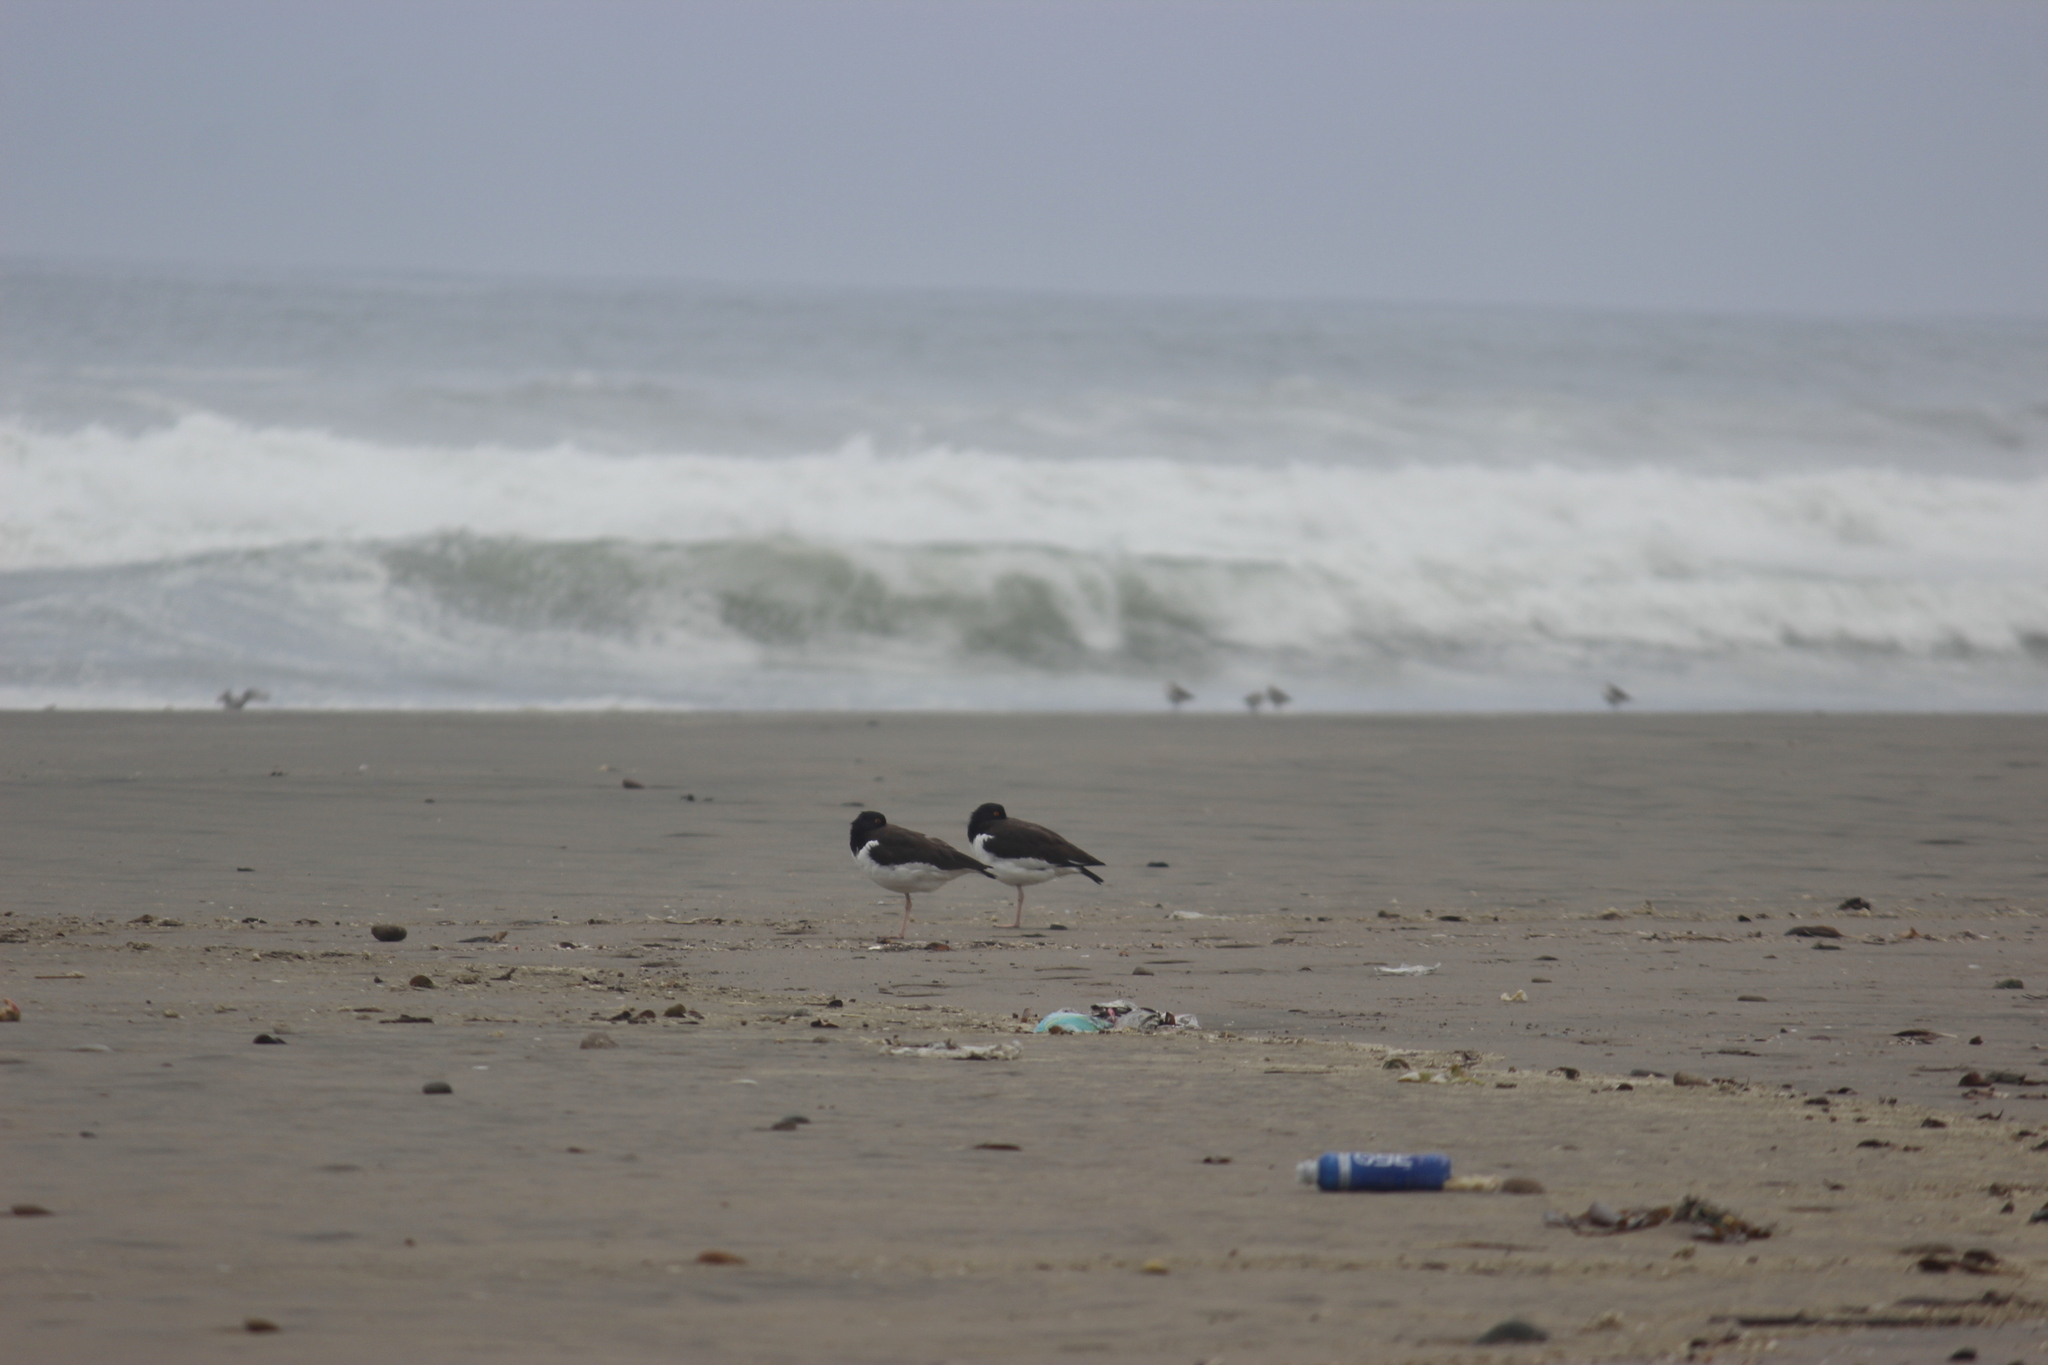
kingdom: Animalia
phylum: Chordata
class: Aves
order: Charadriiformes
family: Haematopodidae
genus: Haematopus
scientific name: Haematopus palliatus
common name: American oystercatcher
